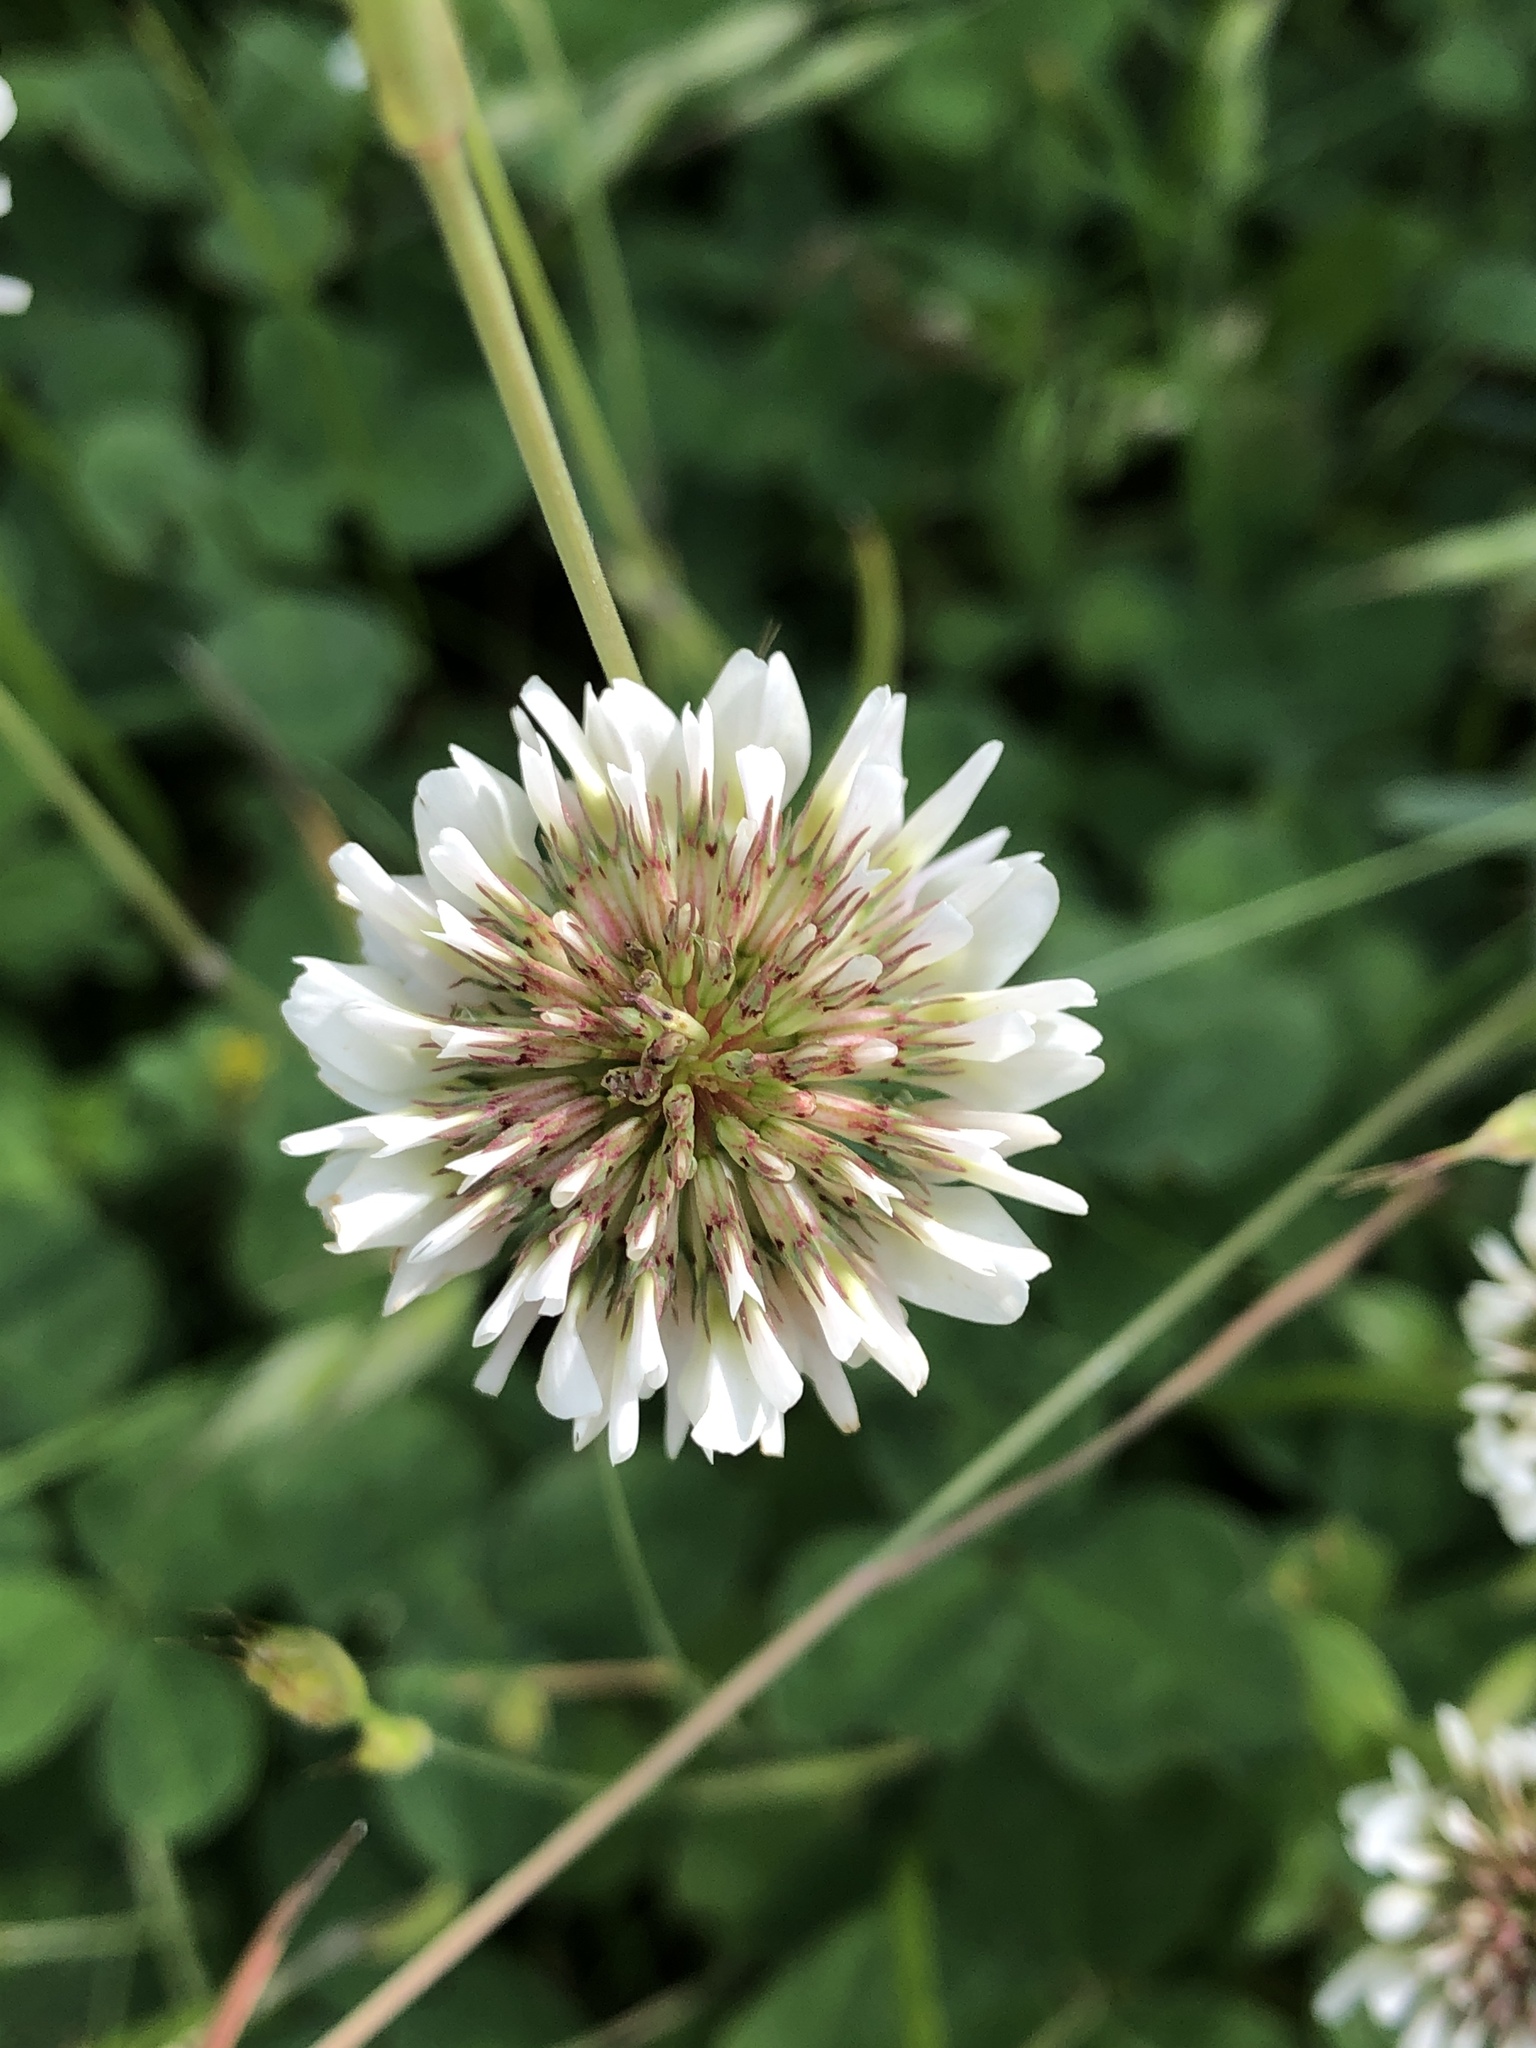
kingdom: Plantae
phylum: Tracheophyta
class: Magnoliopsida
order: Fabales
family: Fabaceae
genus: Trifolium
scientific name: Trifolium repens
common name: White clover
